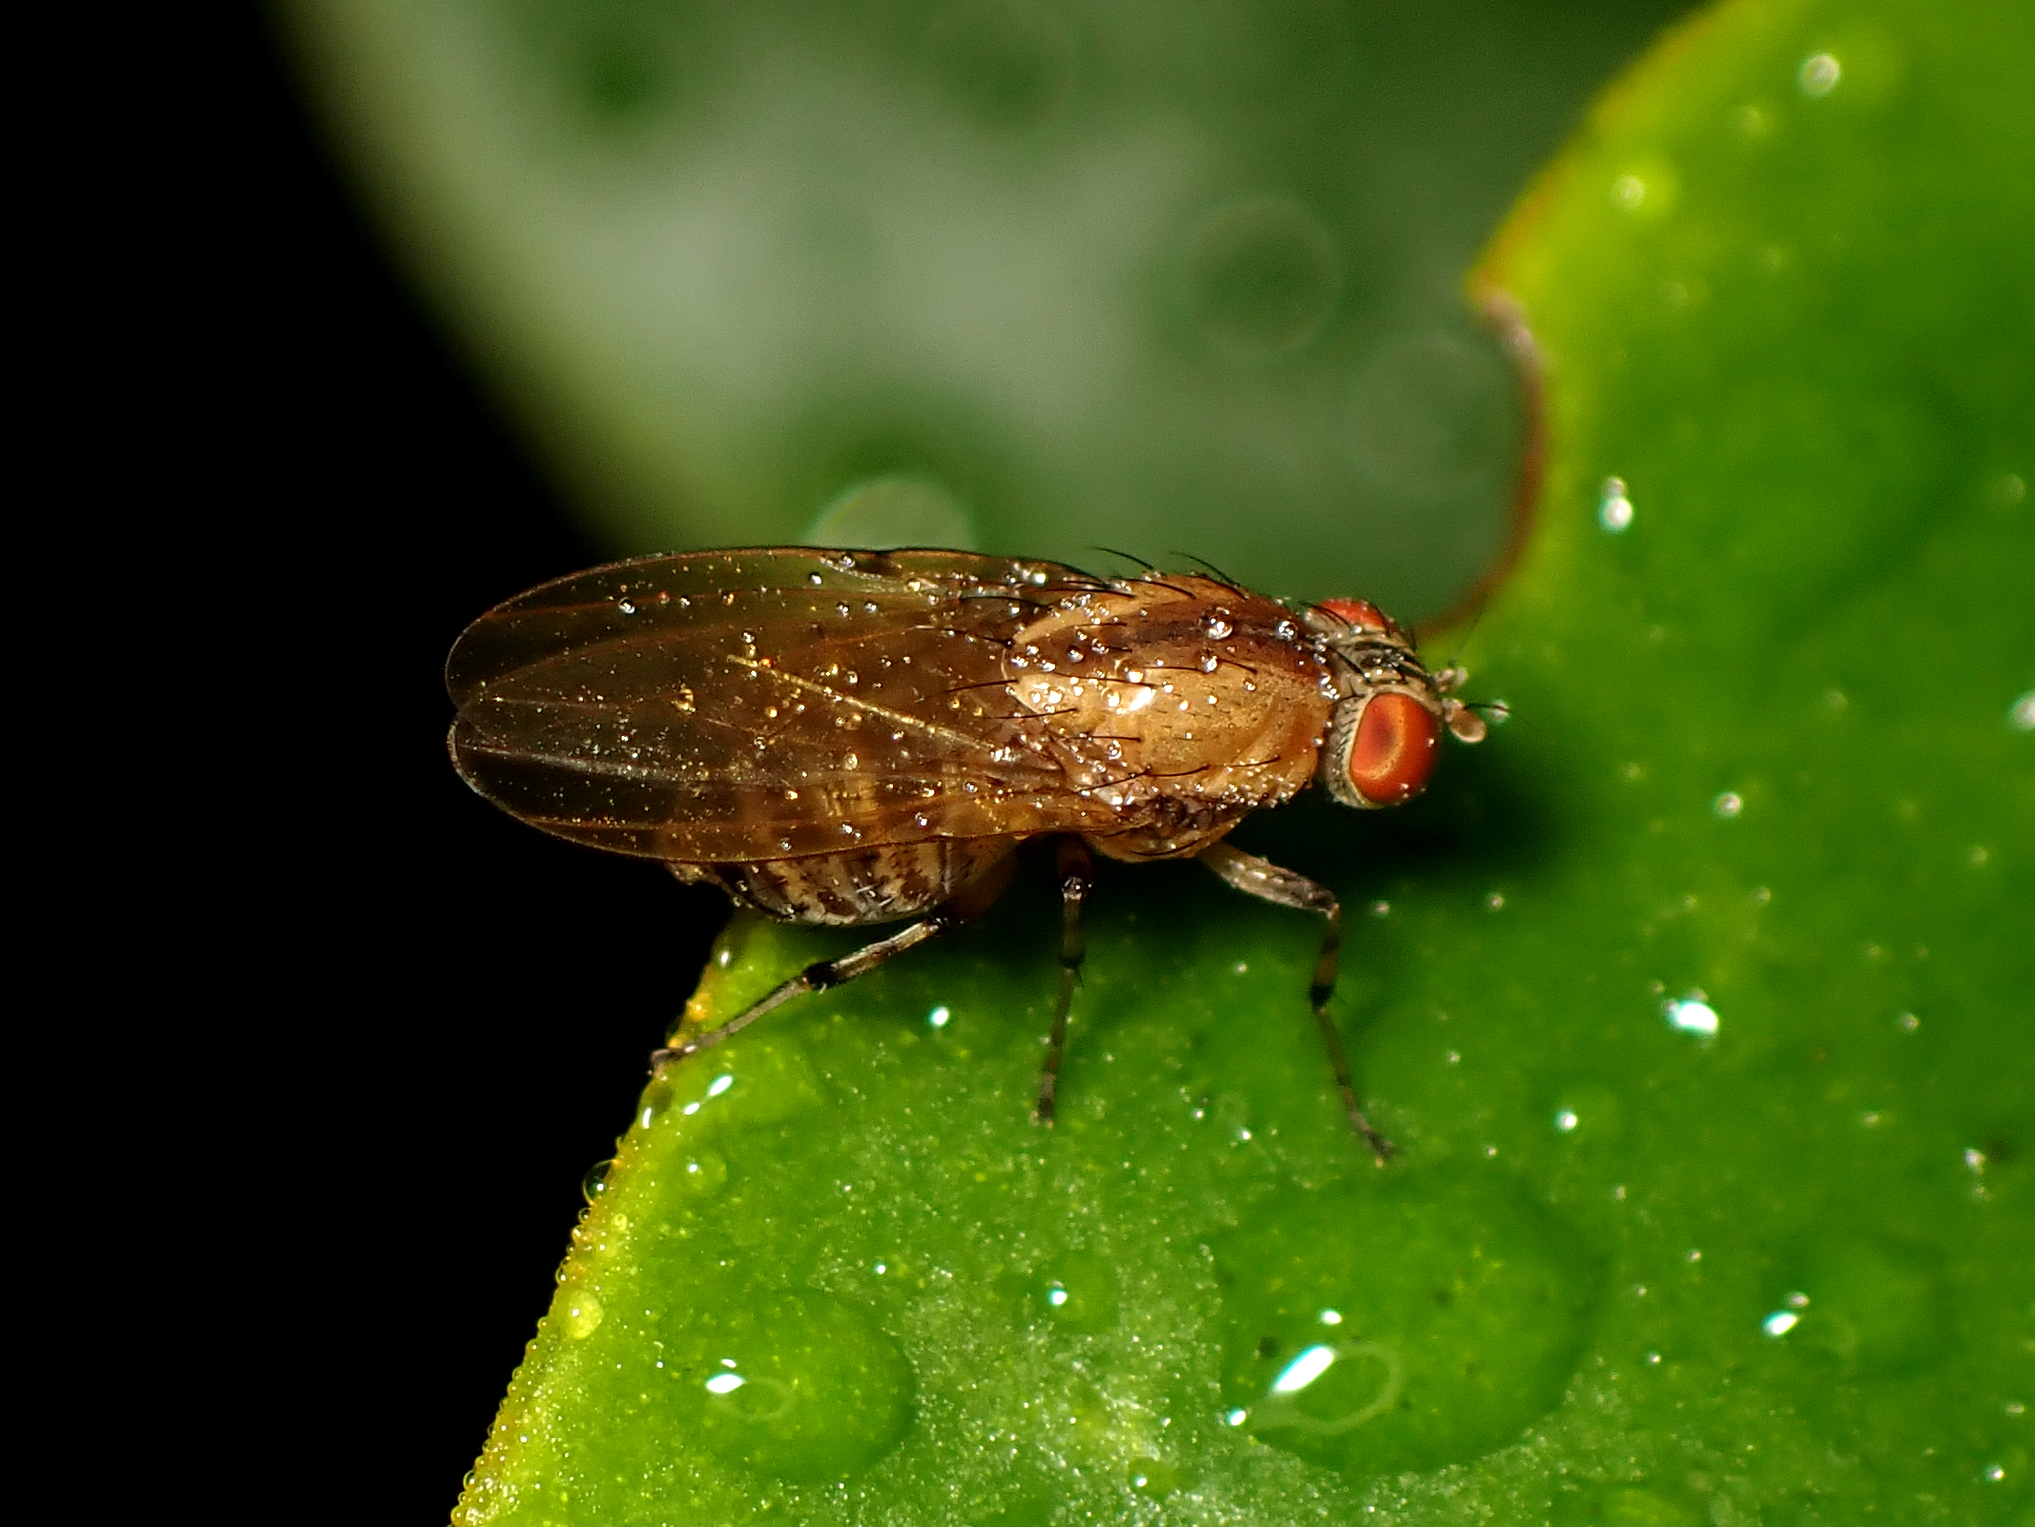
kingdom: Animalia
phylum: Arthropoda
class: Insecta
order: Diptera
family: Lauxaniidae
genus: Sapromyza
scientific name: Sapromyza neozelandica
